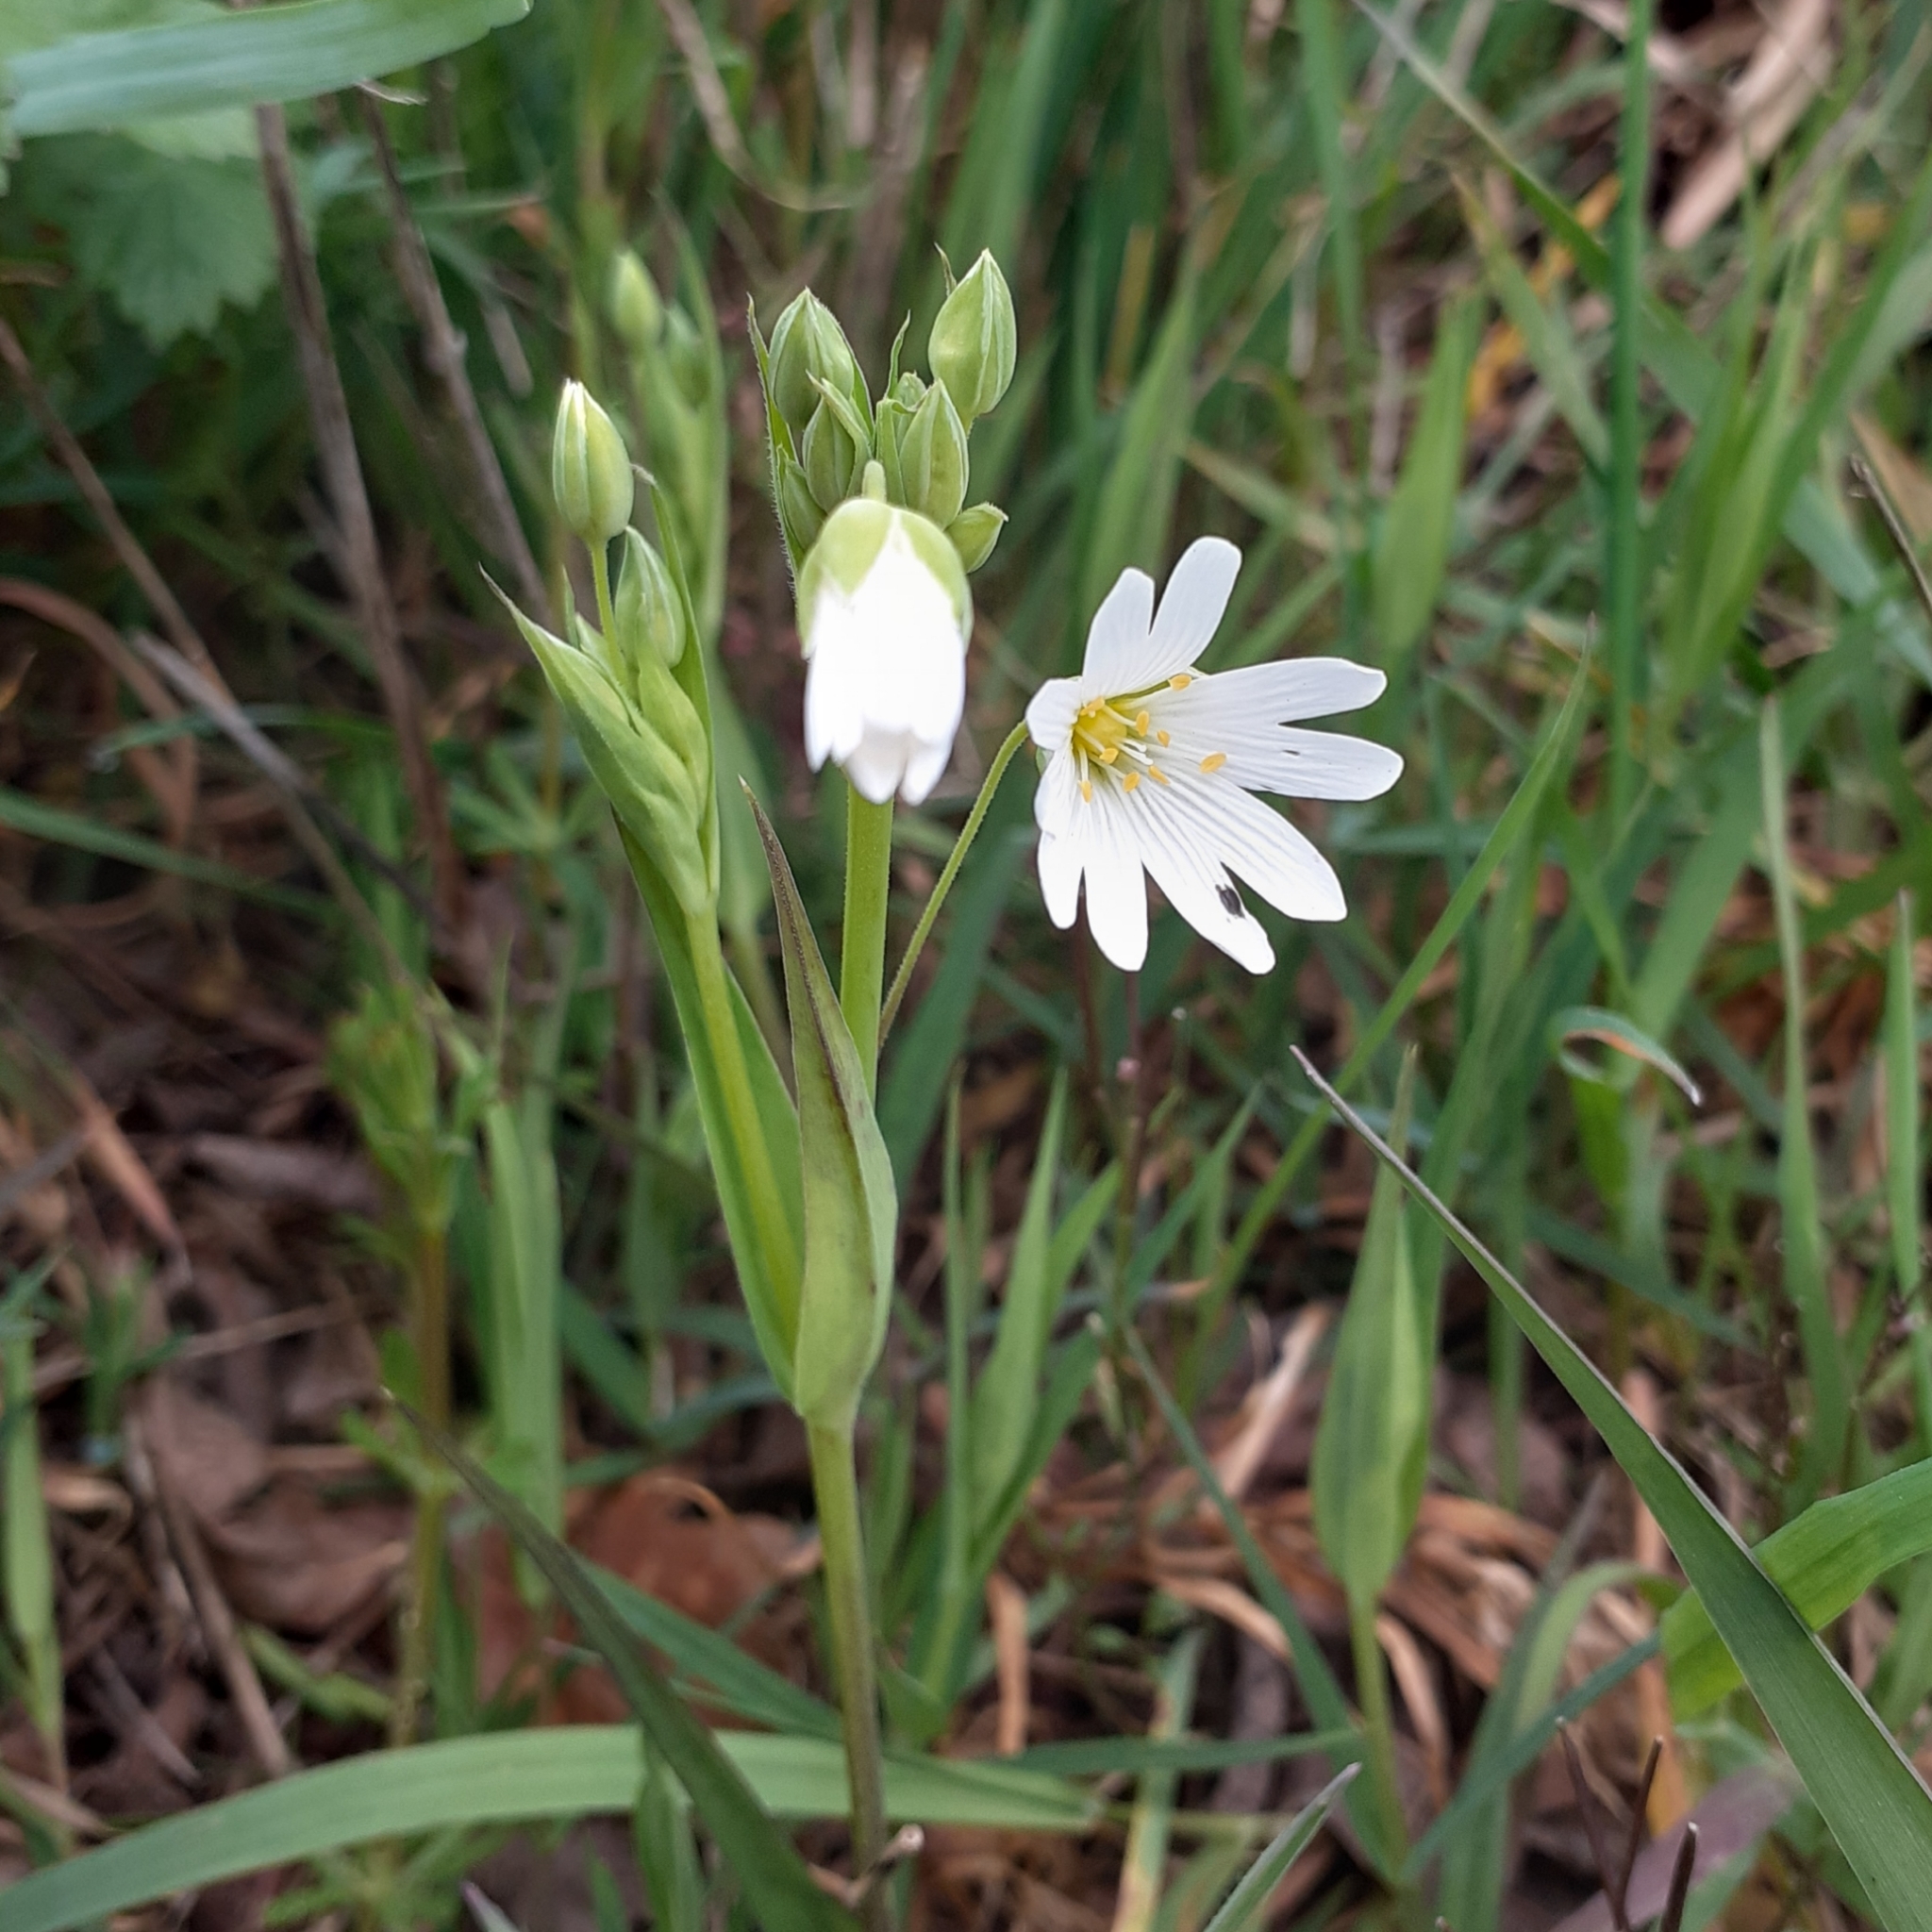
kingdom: Plantae
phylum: Tracheophyta
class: Magnoliopsida
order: Caryophyllales
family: Caryophyllaceae
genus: Rabelera
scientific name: Rabelera holostea
